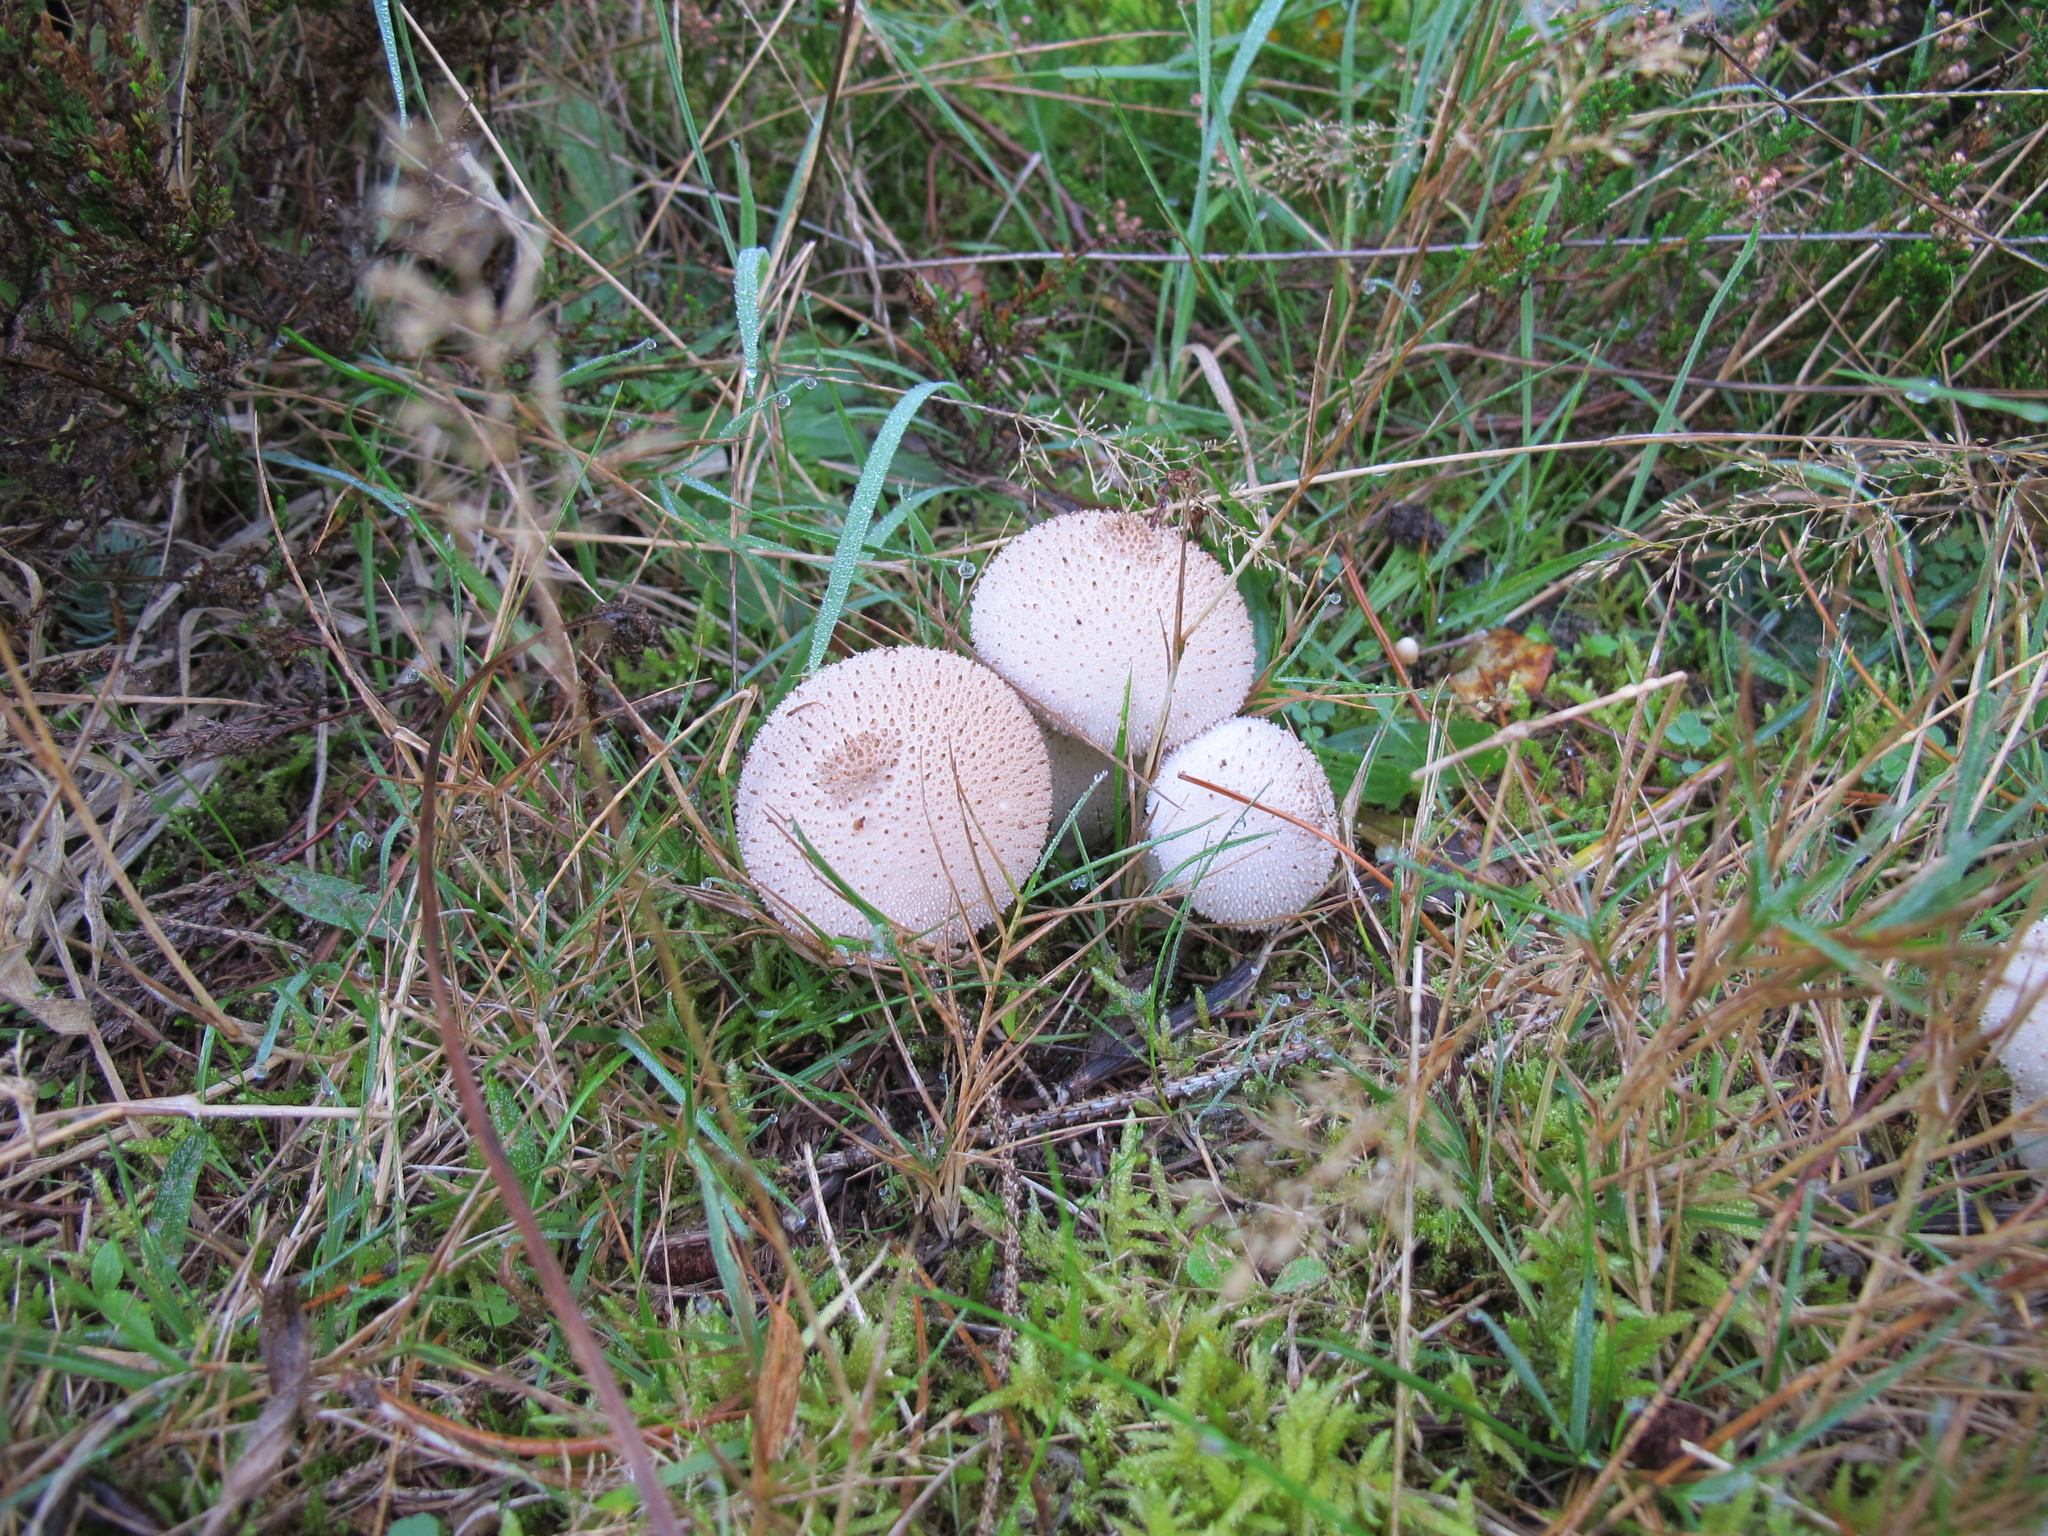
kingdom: Fungi
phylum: Basidiomycota
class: Agaricomycetes
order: Agaricales
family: Lycoperdaceae
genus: Lycoperdon
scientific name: Lycoperdon perlatum
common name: Common puffball
